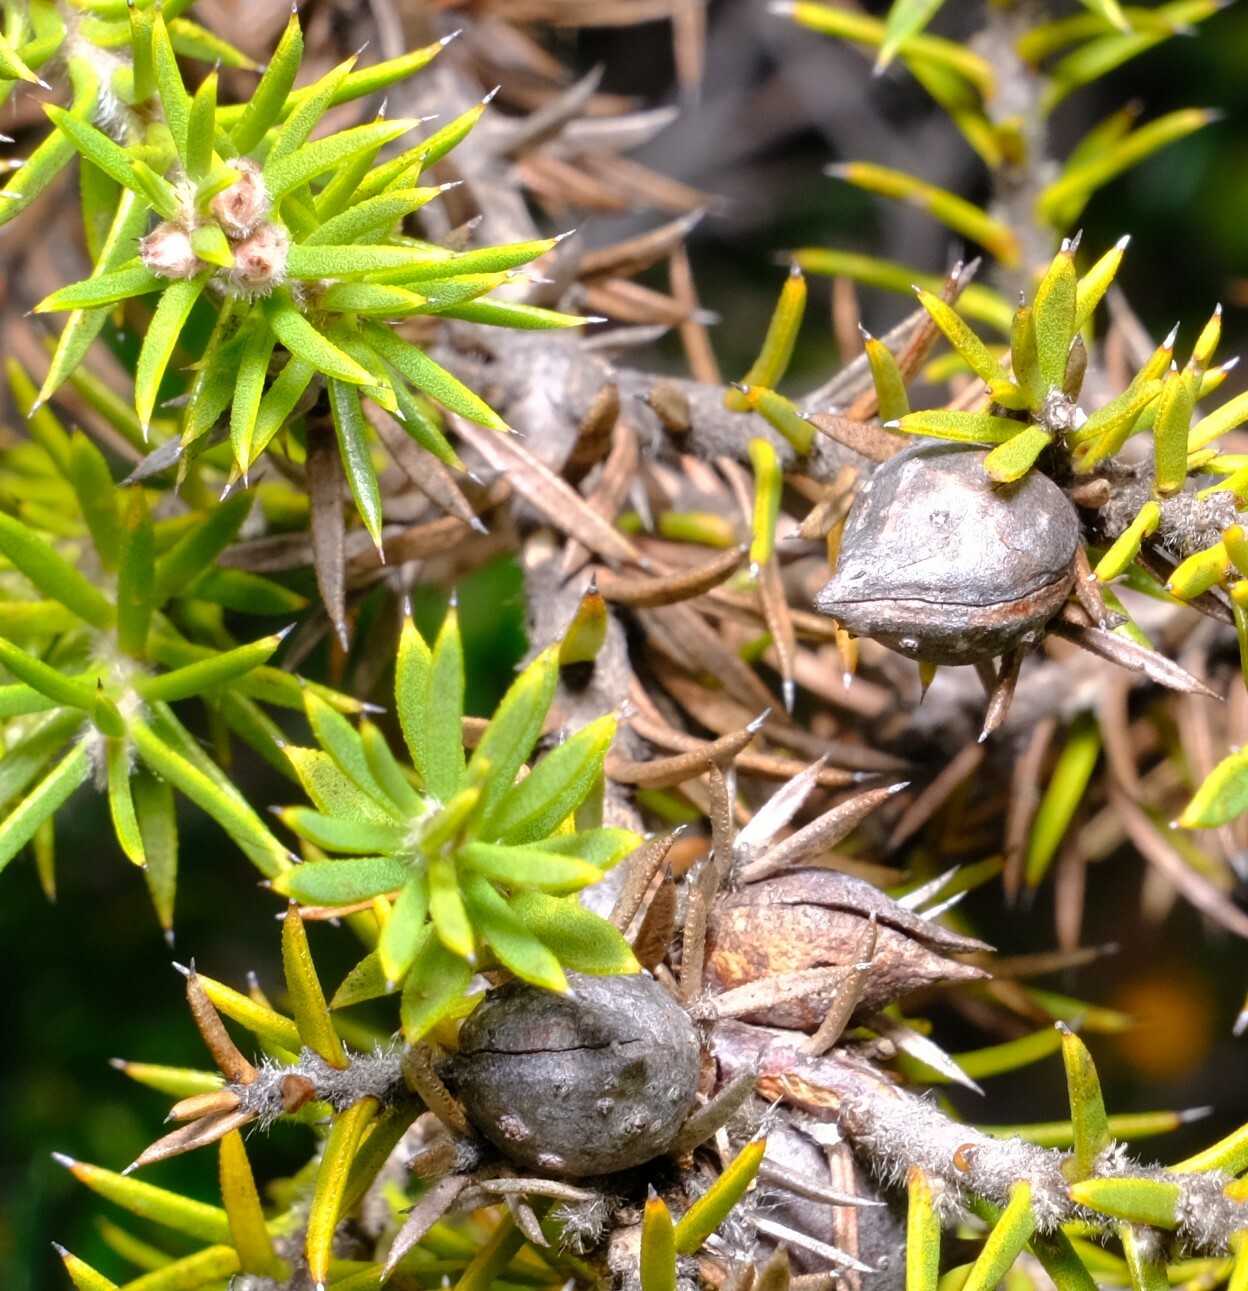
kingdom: Plantae
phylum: Tracheophyta
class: Magnoliopsida
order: Proteales
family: Proteaceae
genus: Hakea
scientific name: Hakea costata
